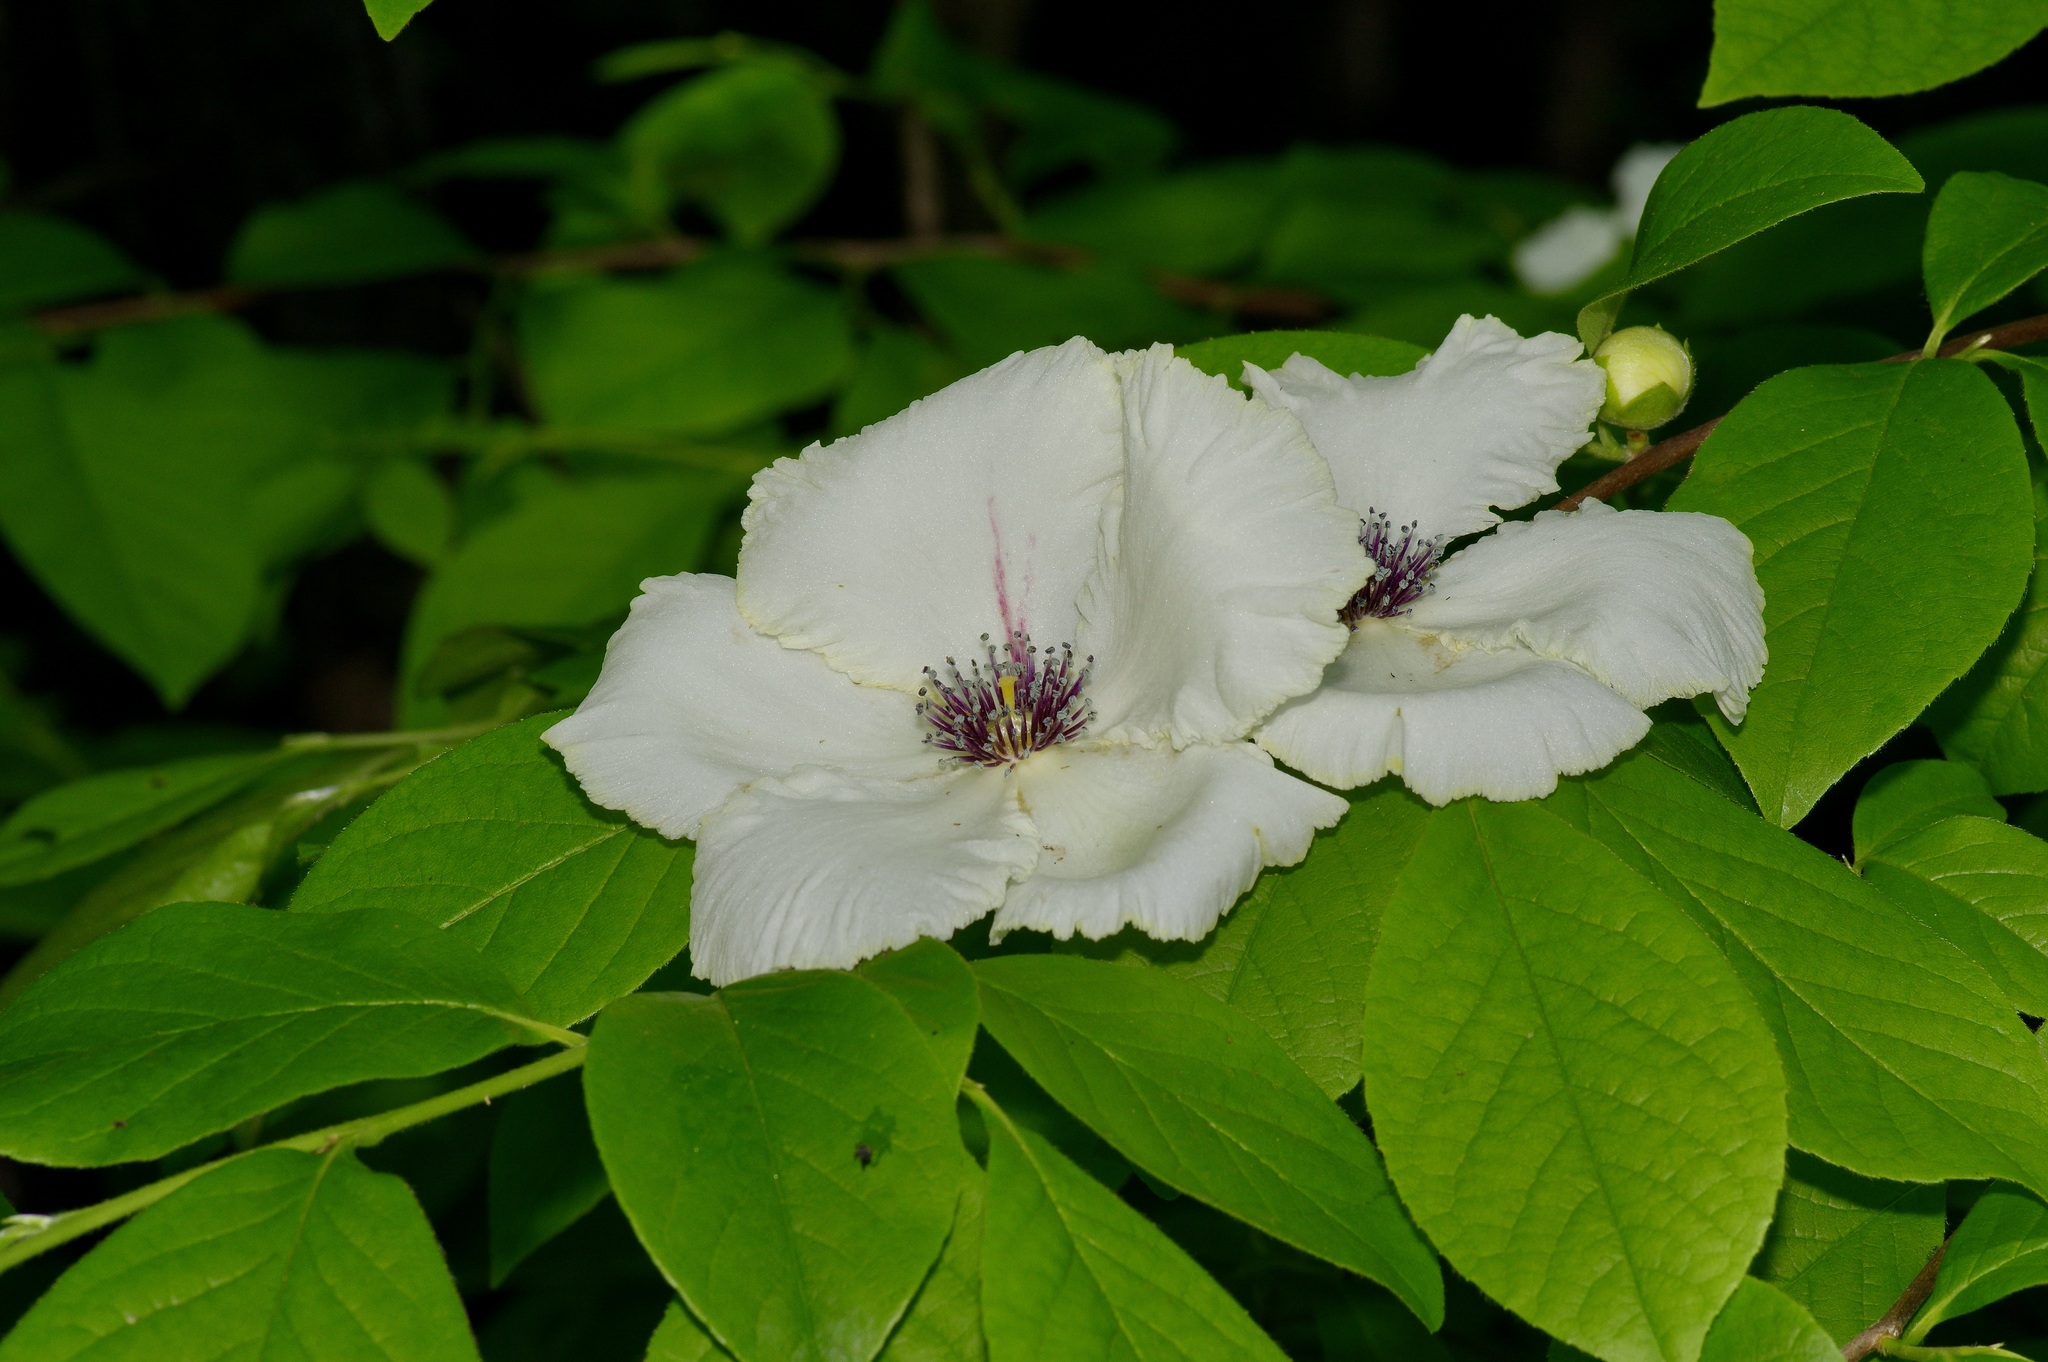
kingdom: Plantae
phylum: Tracheophyta
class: Magnoliopsida
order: Ericales
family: Theaceae
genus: Stewartia
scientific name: Stewartia malacodendron
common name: Virginia stewartia
